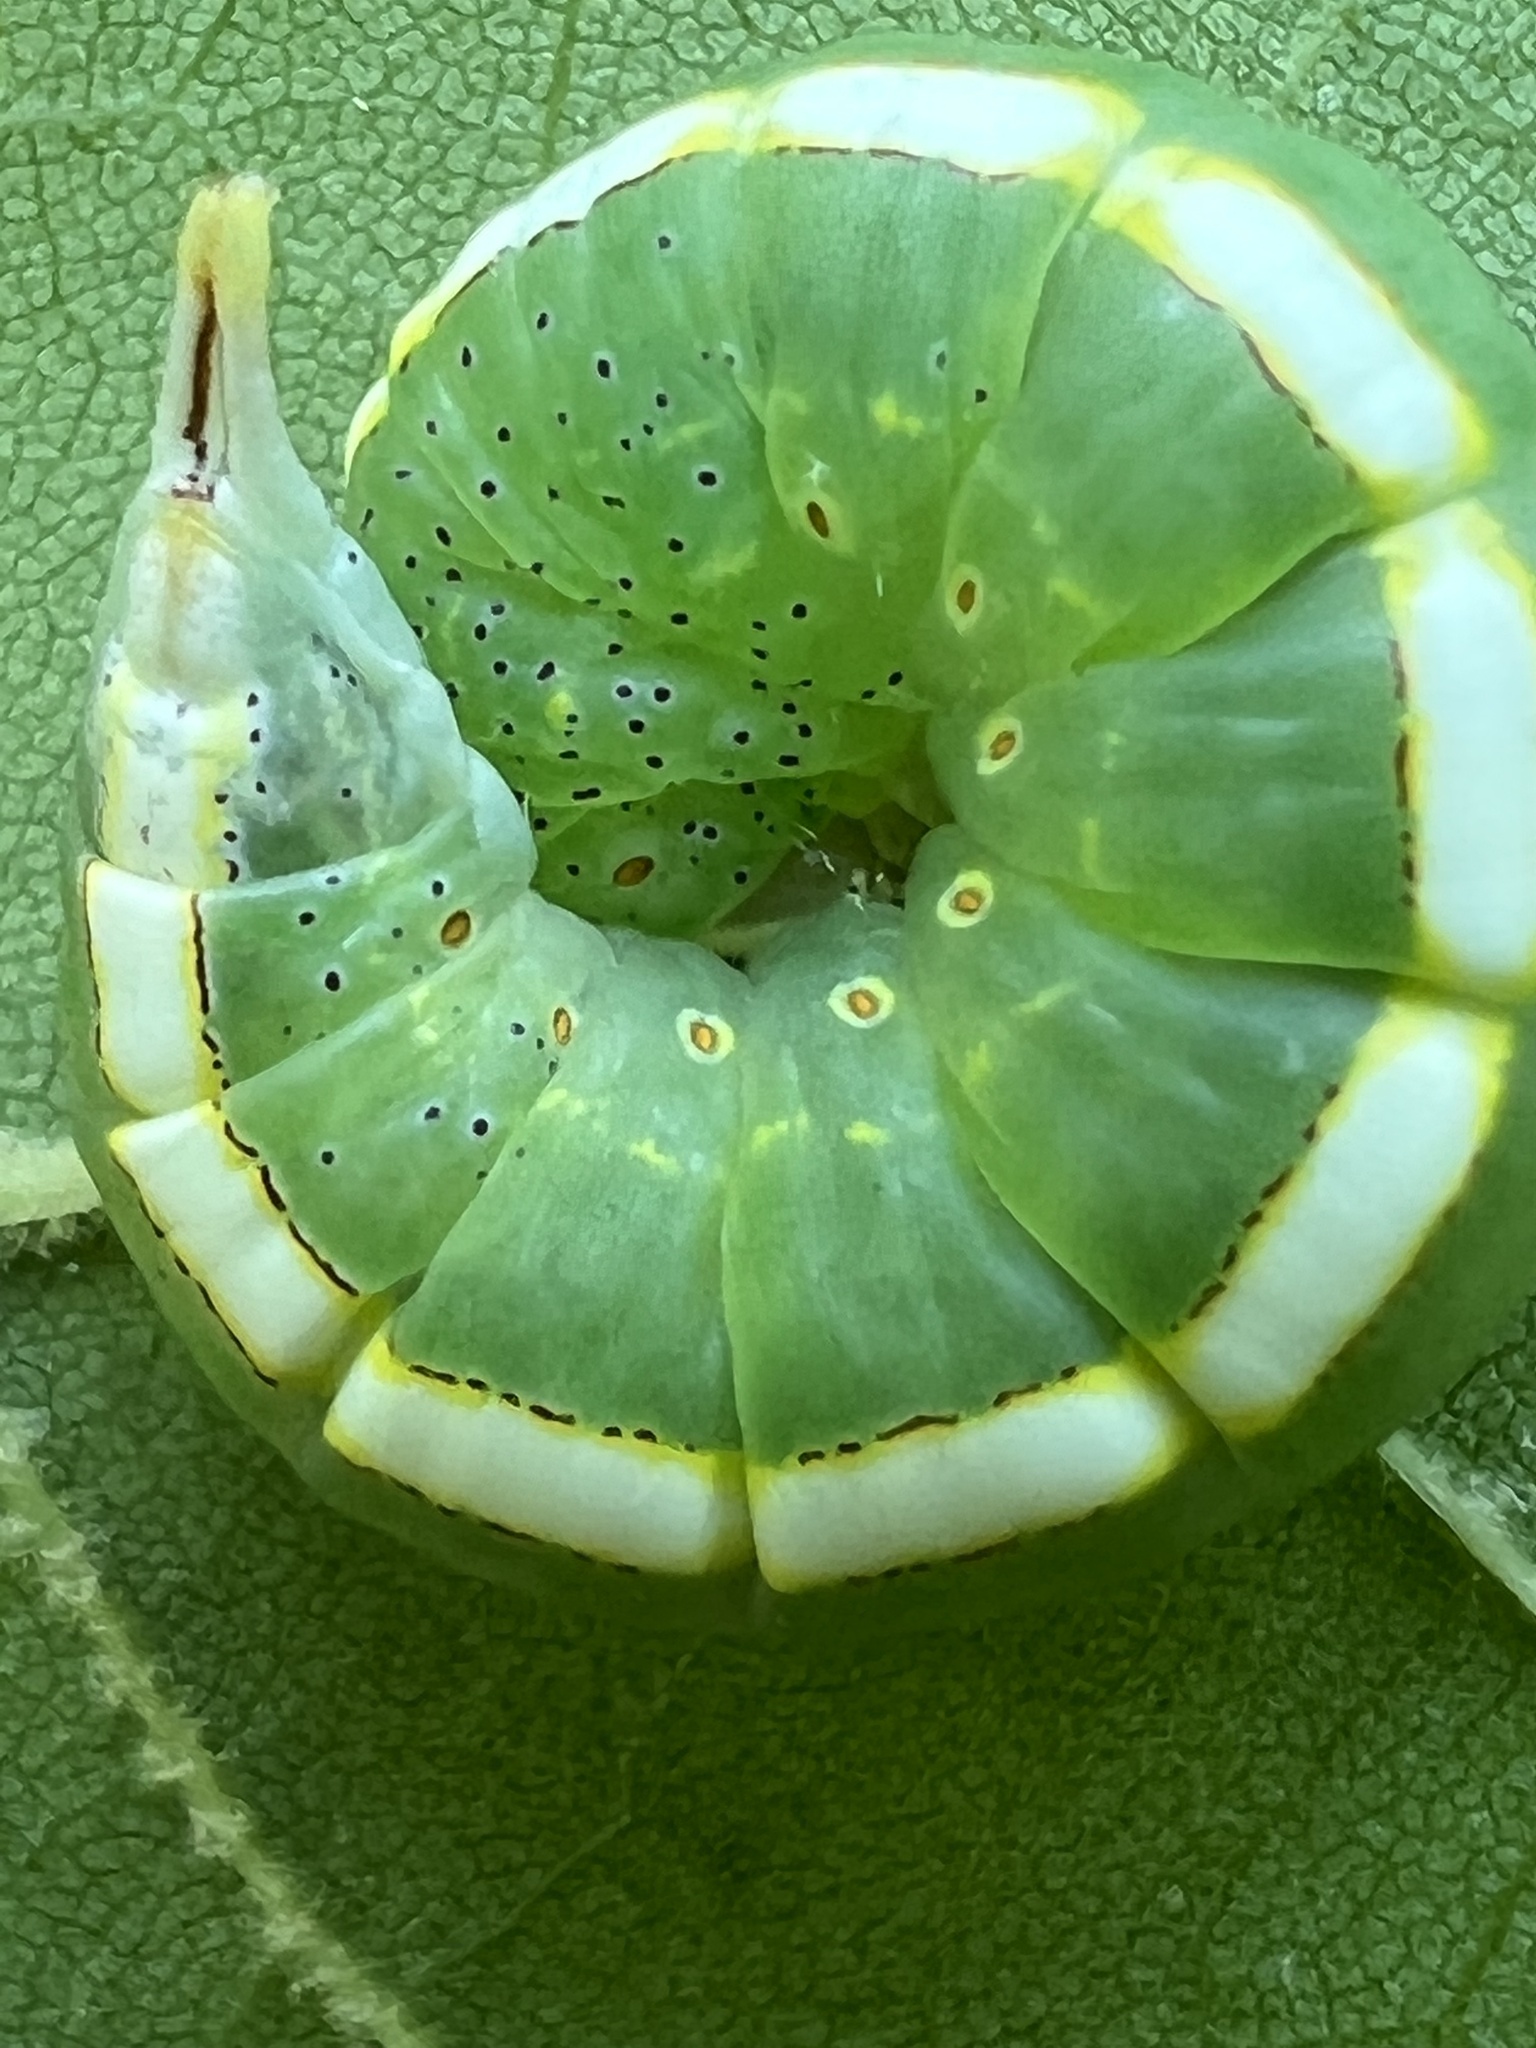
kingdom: Animalia
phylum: Arthropoda
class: Insecta
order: Lepidoptera
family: Notodontidae
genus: Misogada
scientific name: Misogada unicolor
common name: Drab prominent
